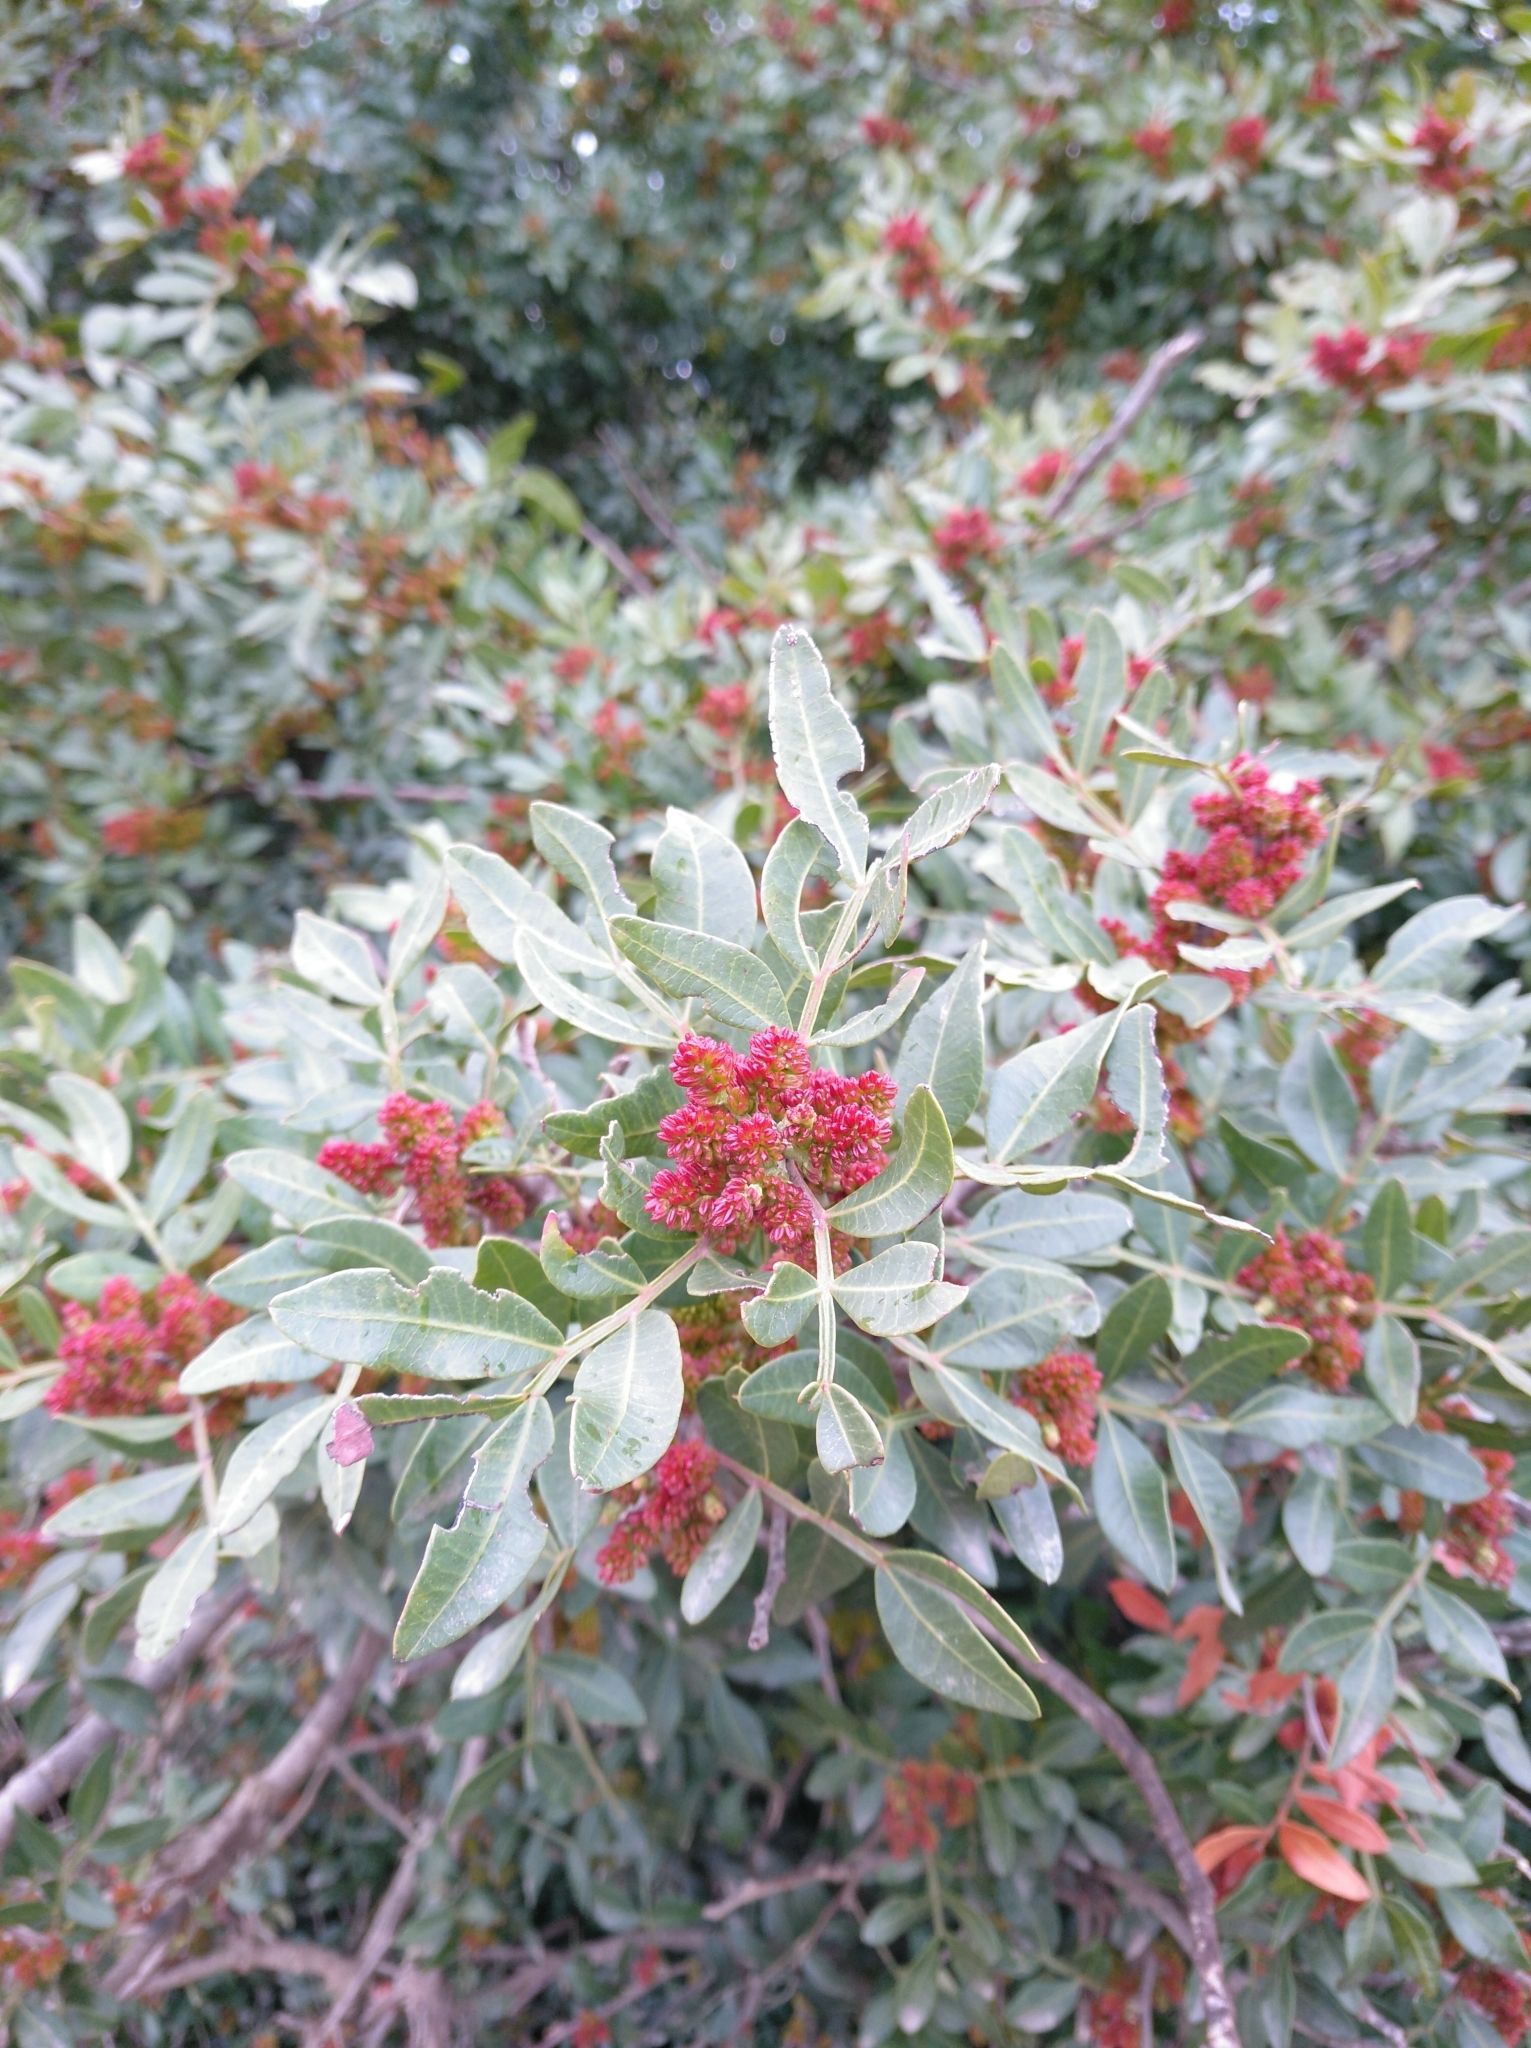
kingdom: Plantae
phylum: Tracheophyta
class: Magnoliopsida
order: Sapindales
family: Anacardiaceae
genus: Pistacia
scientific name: Pistacia lentiscus
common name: Lentisk
